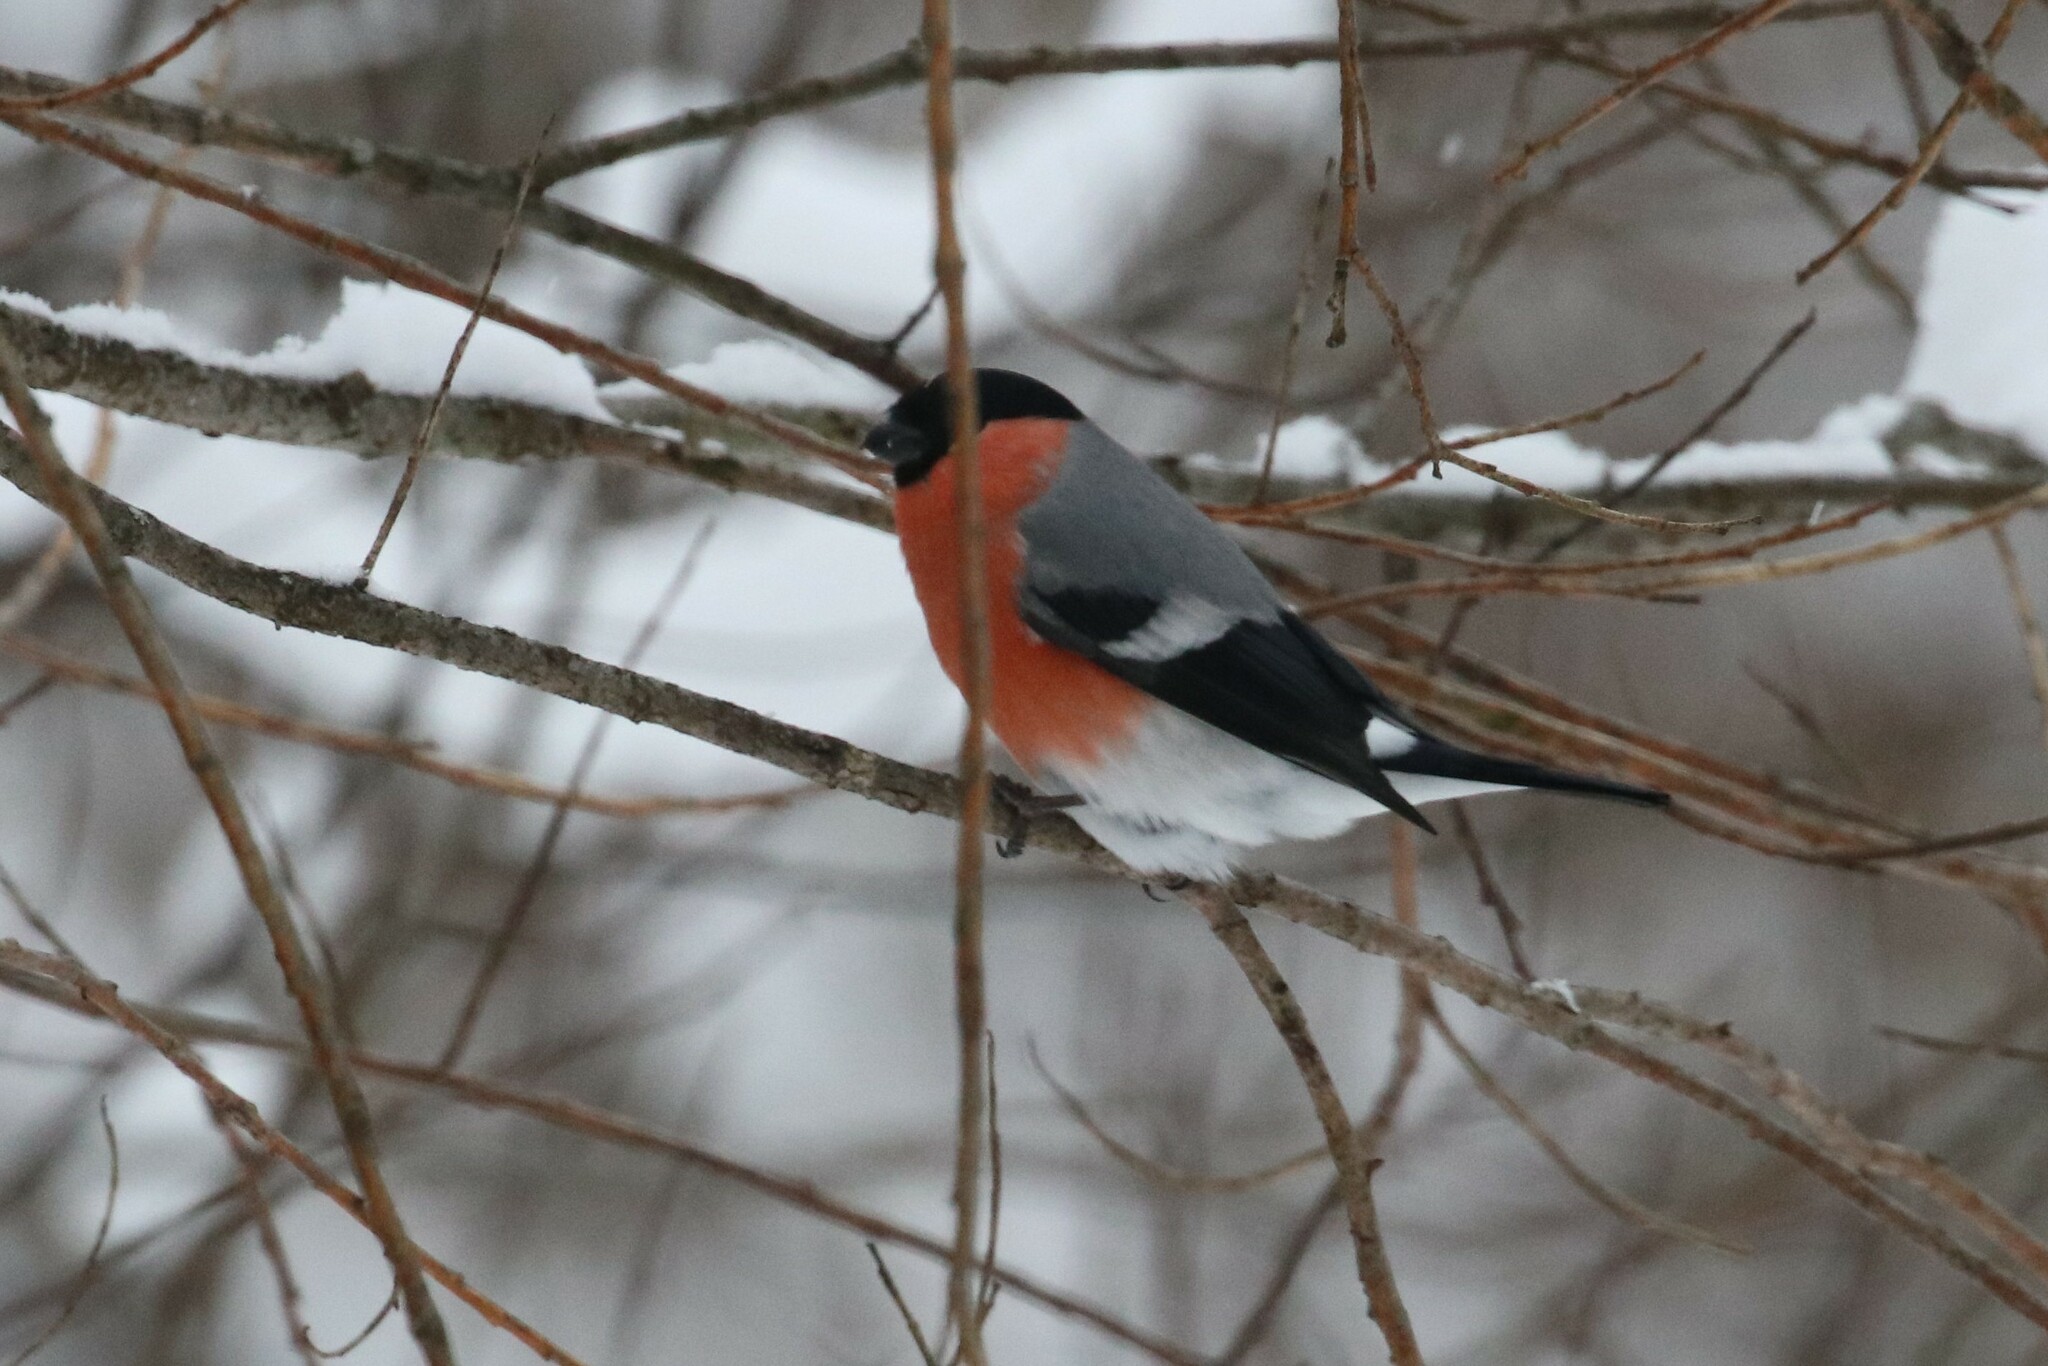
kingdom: Animalia
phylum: Chordata
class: Aves
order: Passeriformes
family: Fringillidae
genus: Pyrrhula
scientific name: Pyrrhula pyrrhula
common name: Eurasian bullfinch
